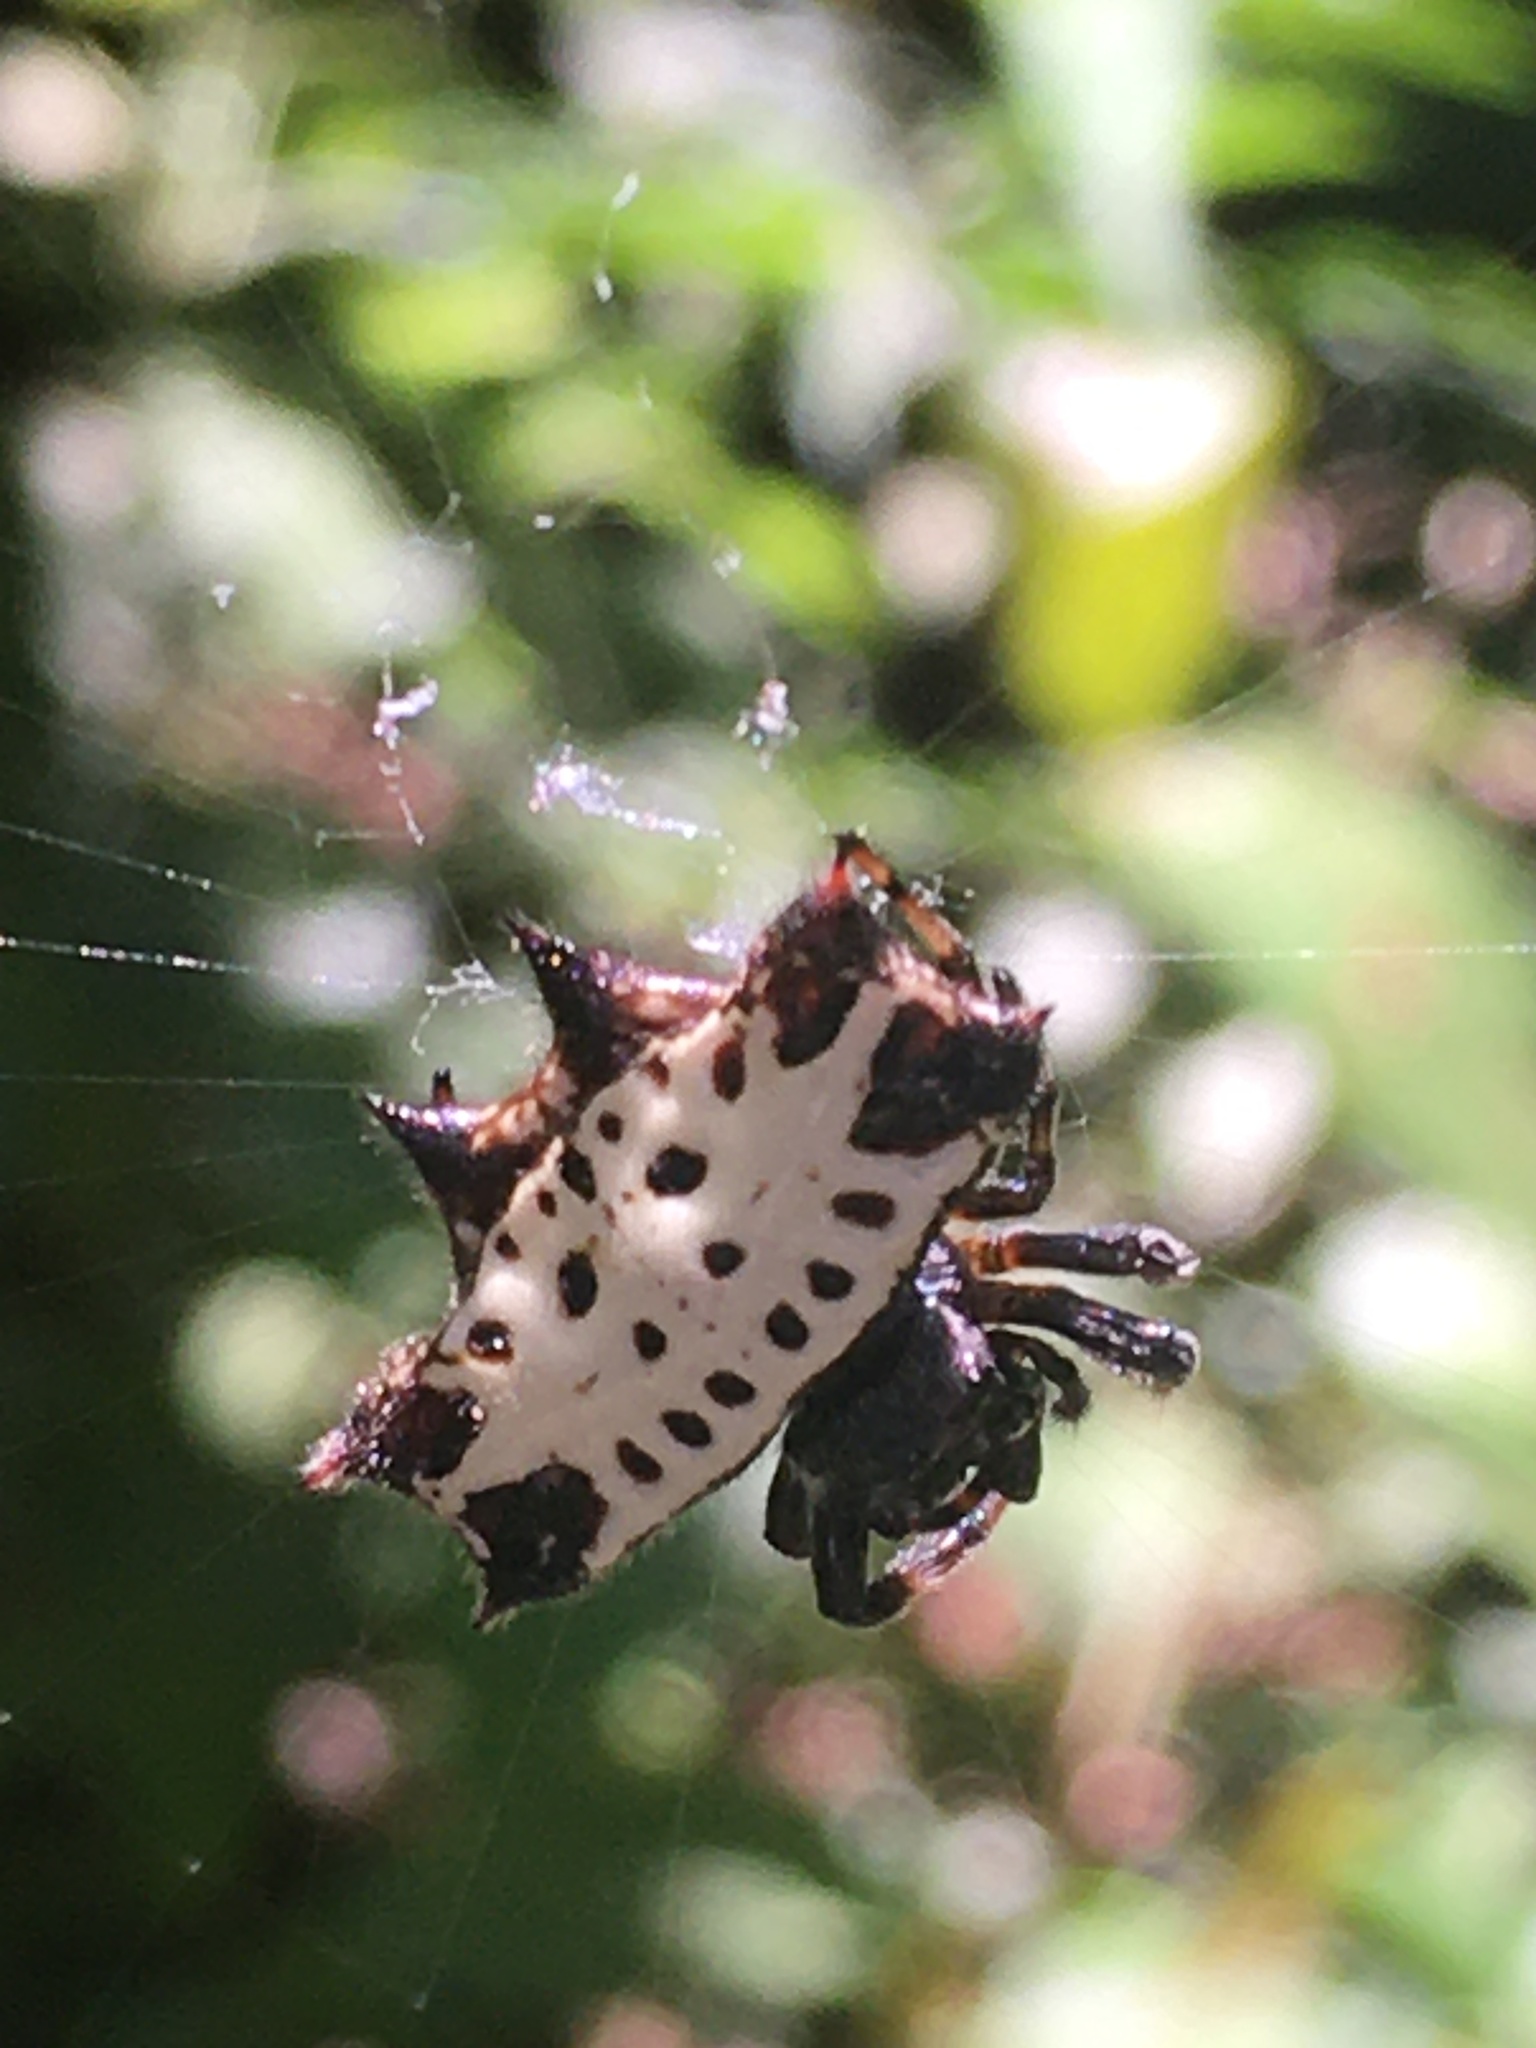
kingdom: Animalia
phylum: Arthropoda
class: Arachnida
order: Araneae
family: Araneidae
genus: Gasteracantha
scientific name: Gasteracantha cancriformis
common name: Orb weavers
